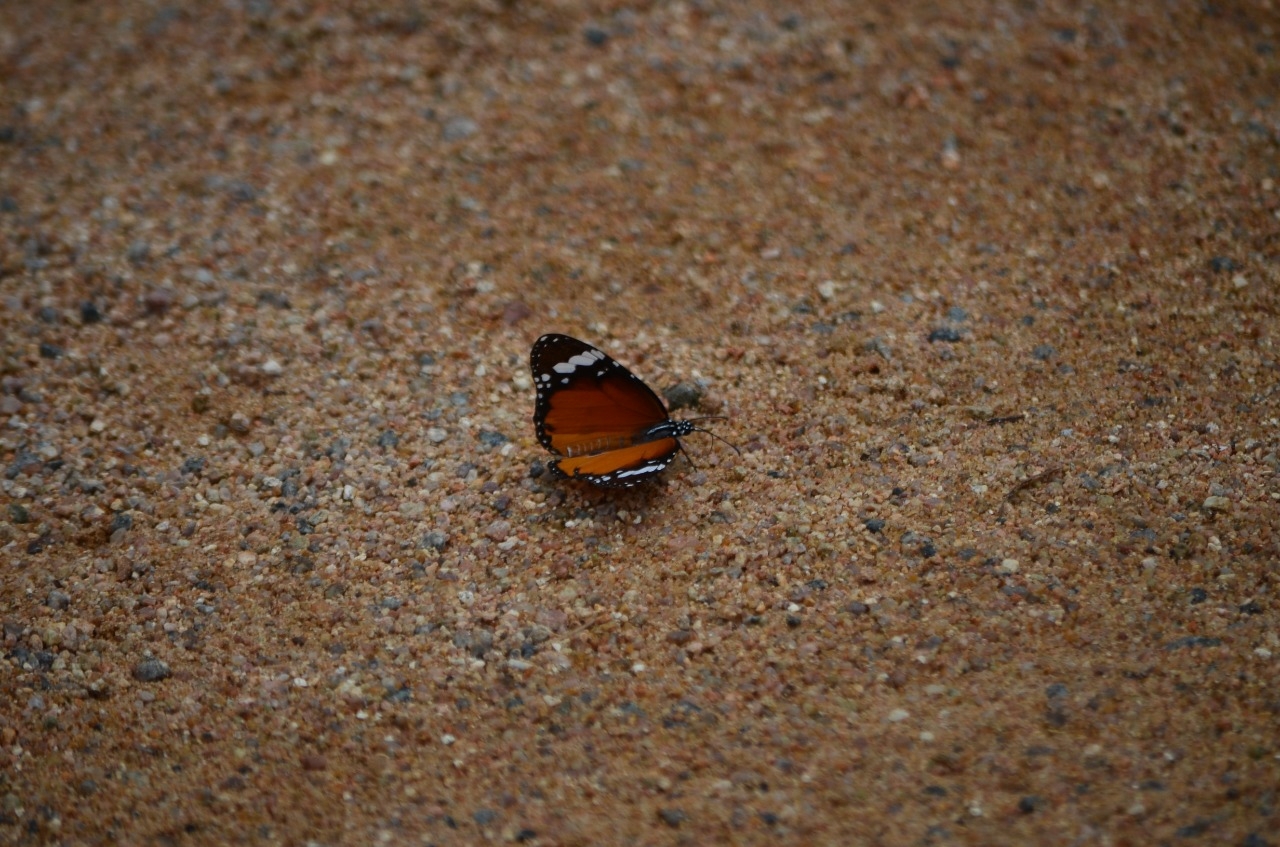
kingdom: Animalia
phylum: Arthropoda
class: Insecta
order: Lepidoptera
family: Nymphalidae
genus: Danaus
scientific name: Danaus chrysippus
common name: Plain tiger
